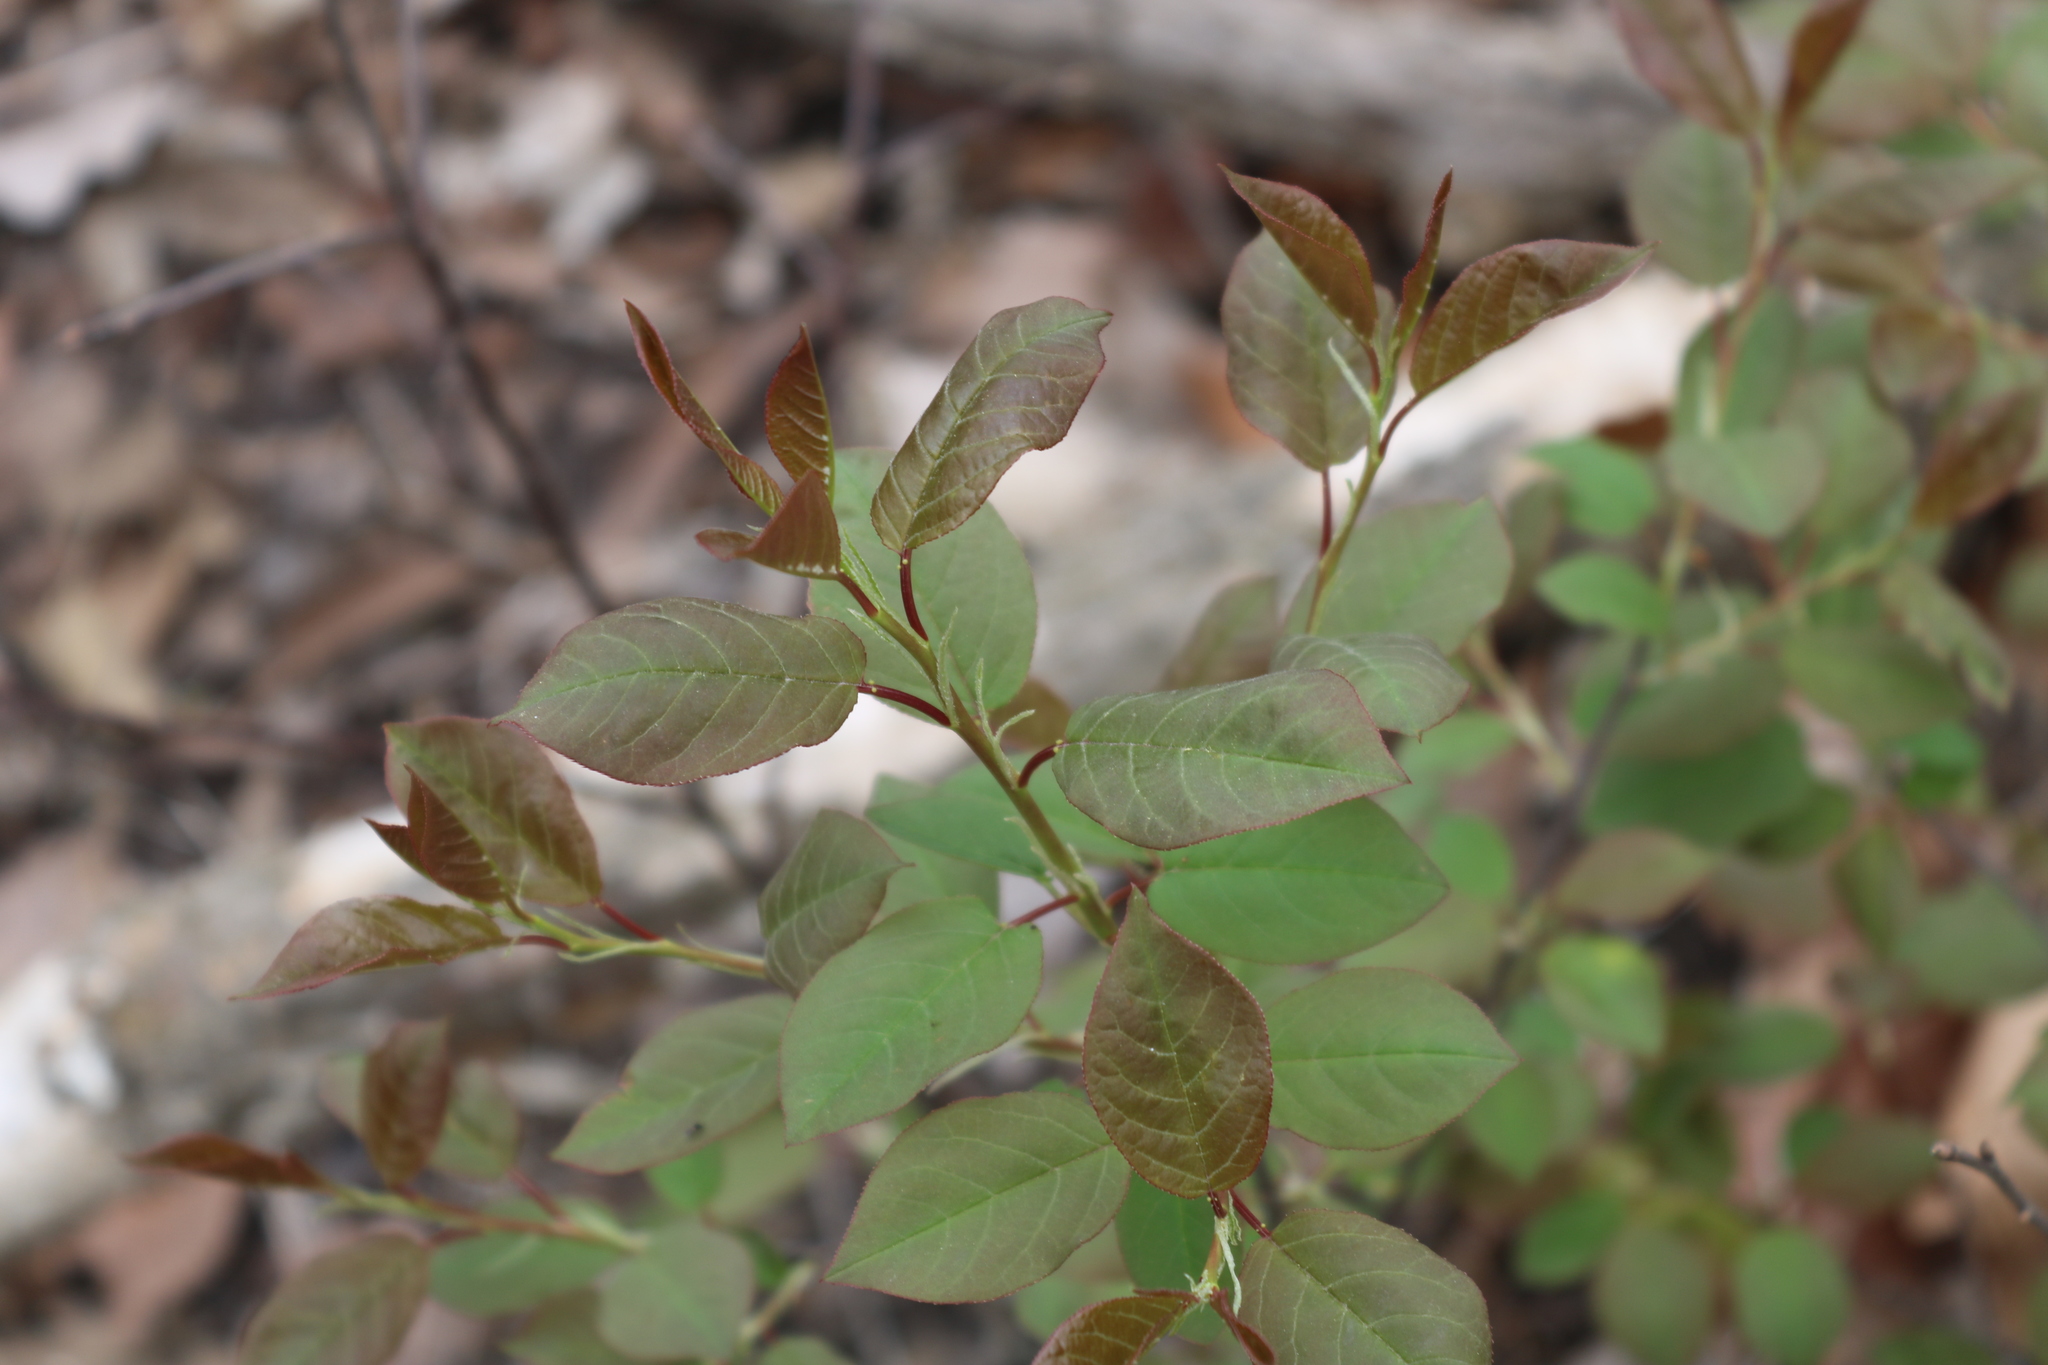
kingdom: Plantae
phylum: Tracheophyta
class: Magnoliopsida
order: Rosales
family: Rosaceae
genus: Prunus
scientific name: Prunus virginiana
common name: Chokecherry
